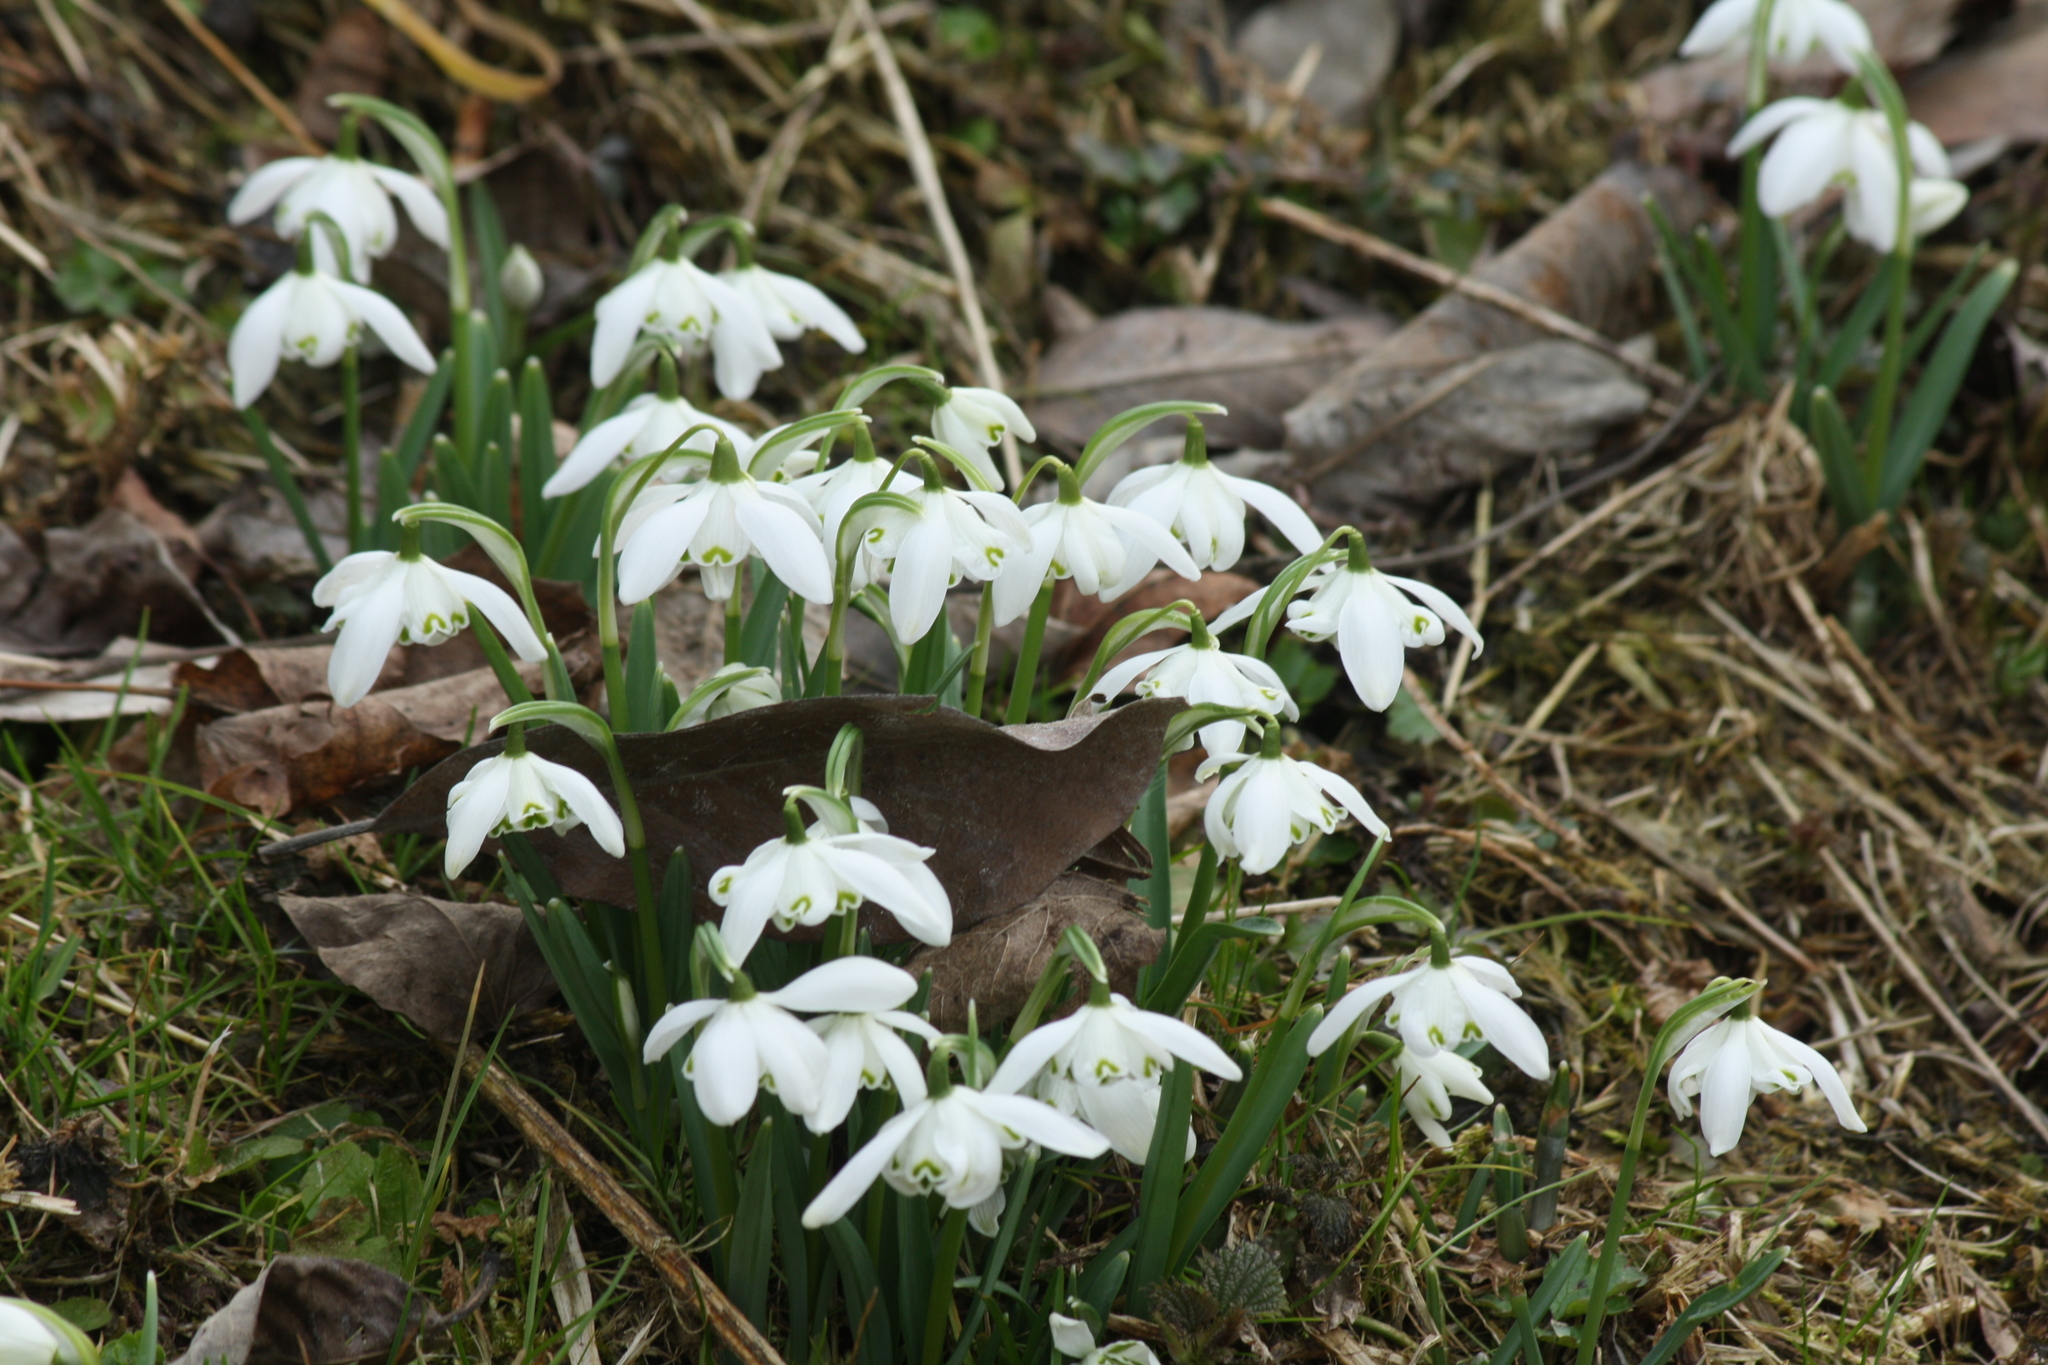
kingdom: Plantae
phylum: Tracheophyta
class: Liliopsida
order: Asparagales
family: Amaryllidaceae
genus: Galanthus
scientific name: Galanthus nivalis
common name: Snowdrop
